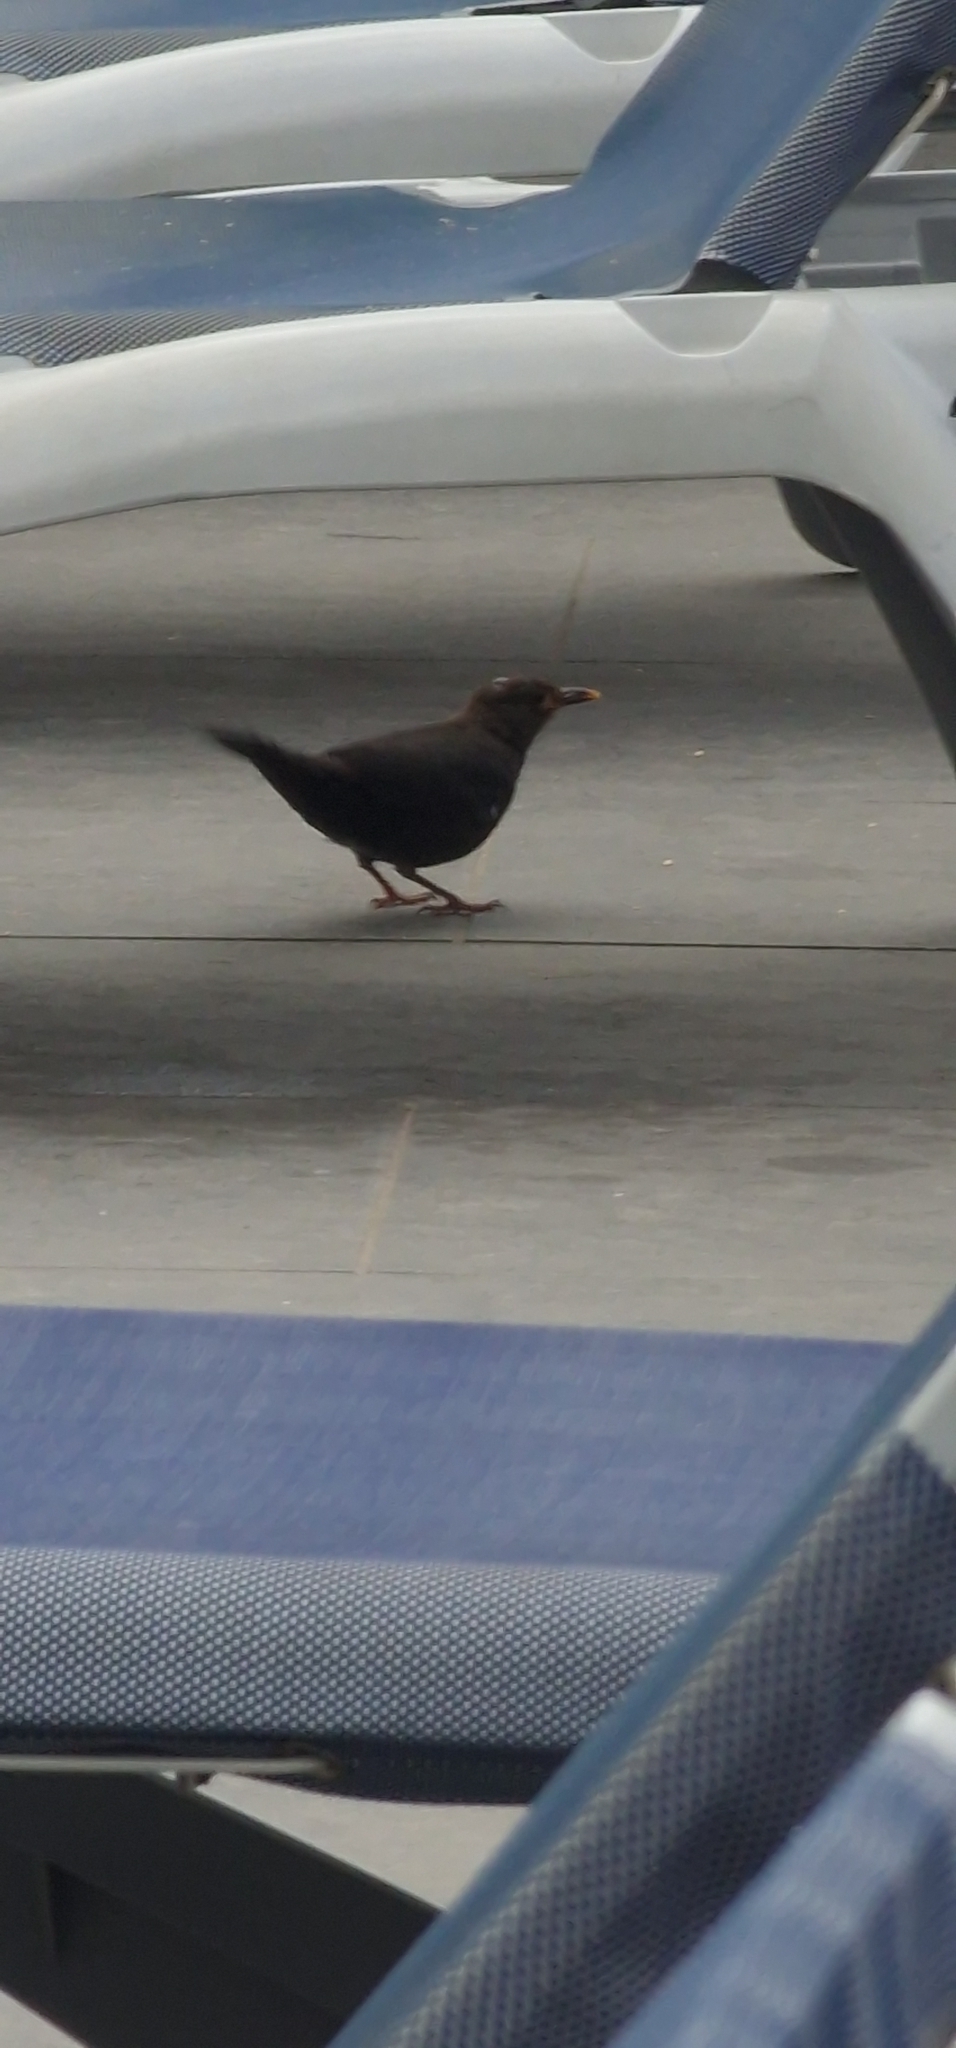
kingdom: Animalia
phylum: Chordata
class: Aves
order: Passeriformes
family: Turdidae
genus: Turdus
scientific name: Turdus merula
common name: Common blackbird
